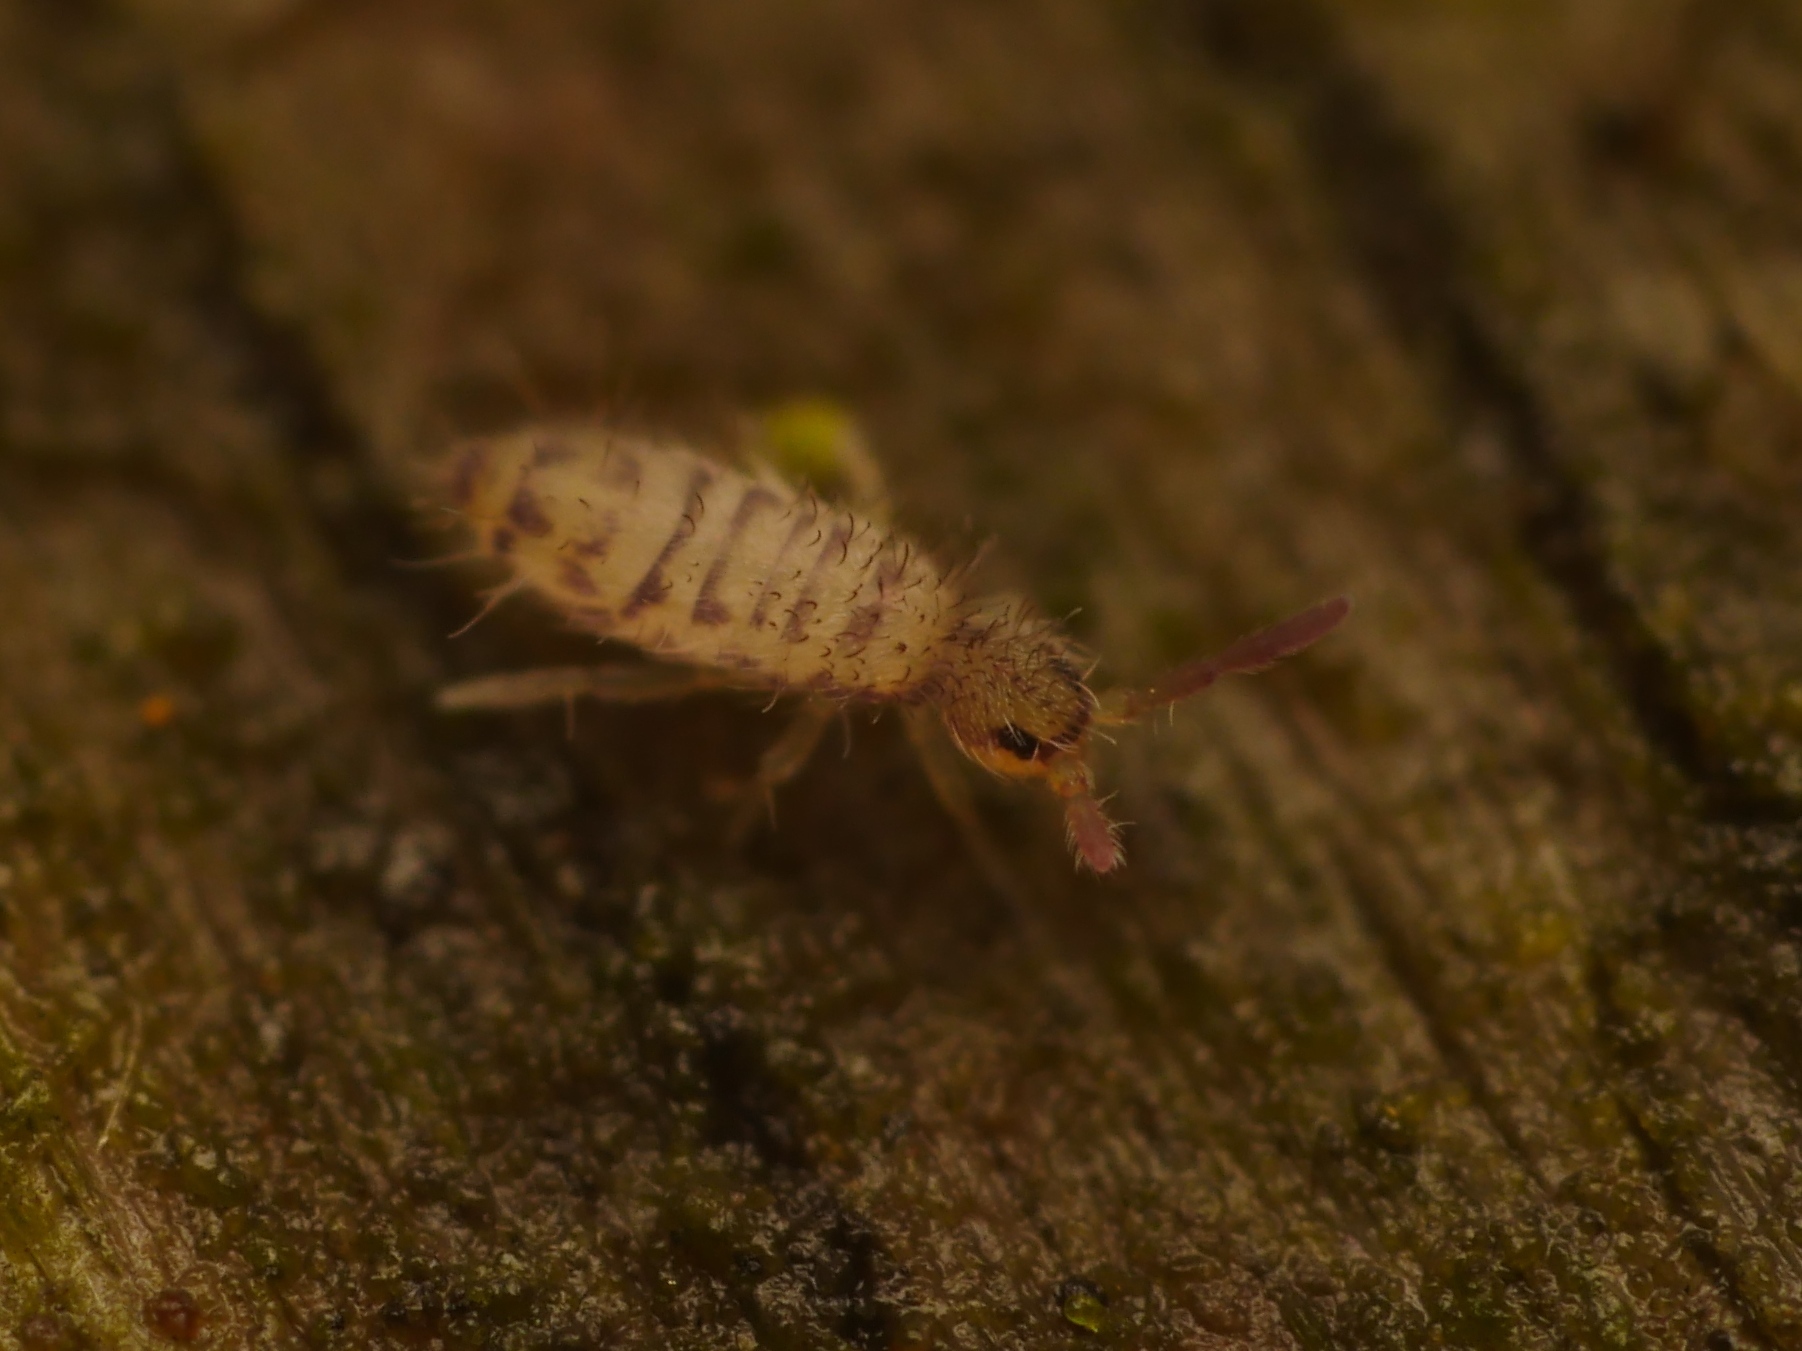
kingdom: Animalia
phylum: Arthropoda
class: Collembola
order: Entomobryomorpha
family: Entomobryidae
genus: Entomobrya
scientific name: Entomobrya multifasciata
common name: Springtail
